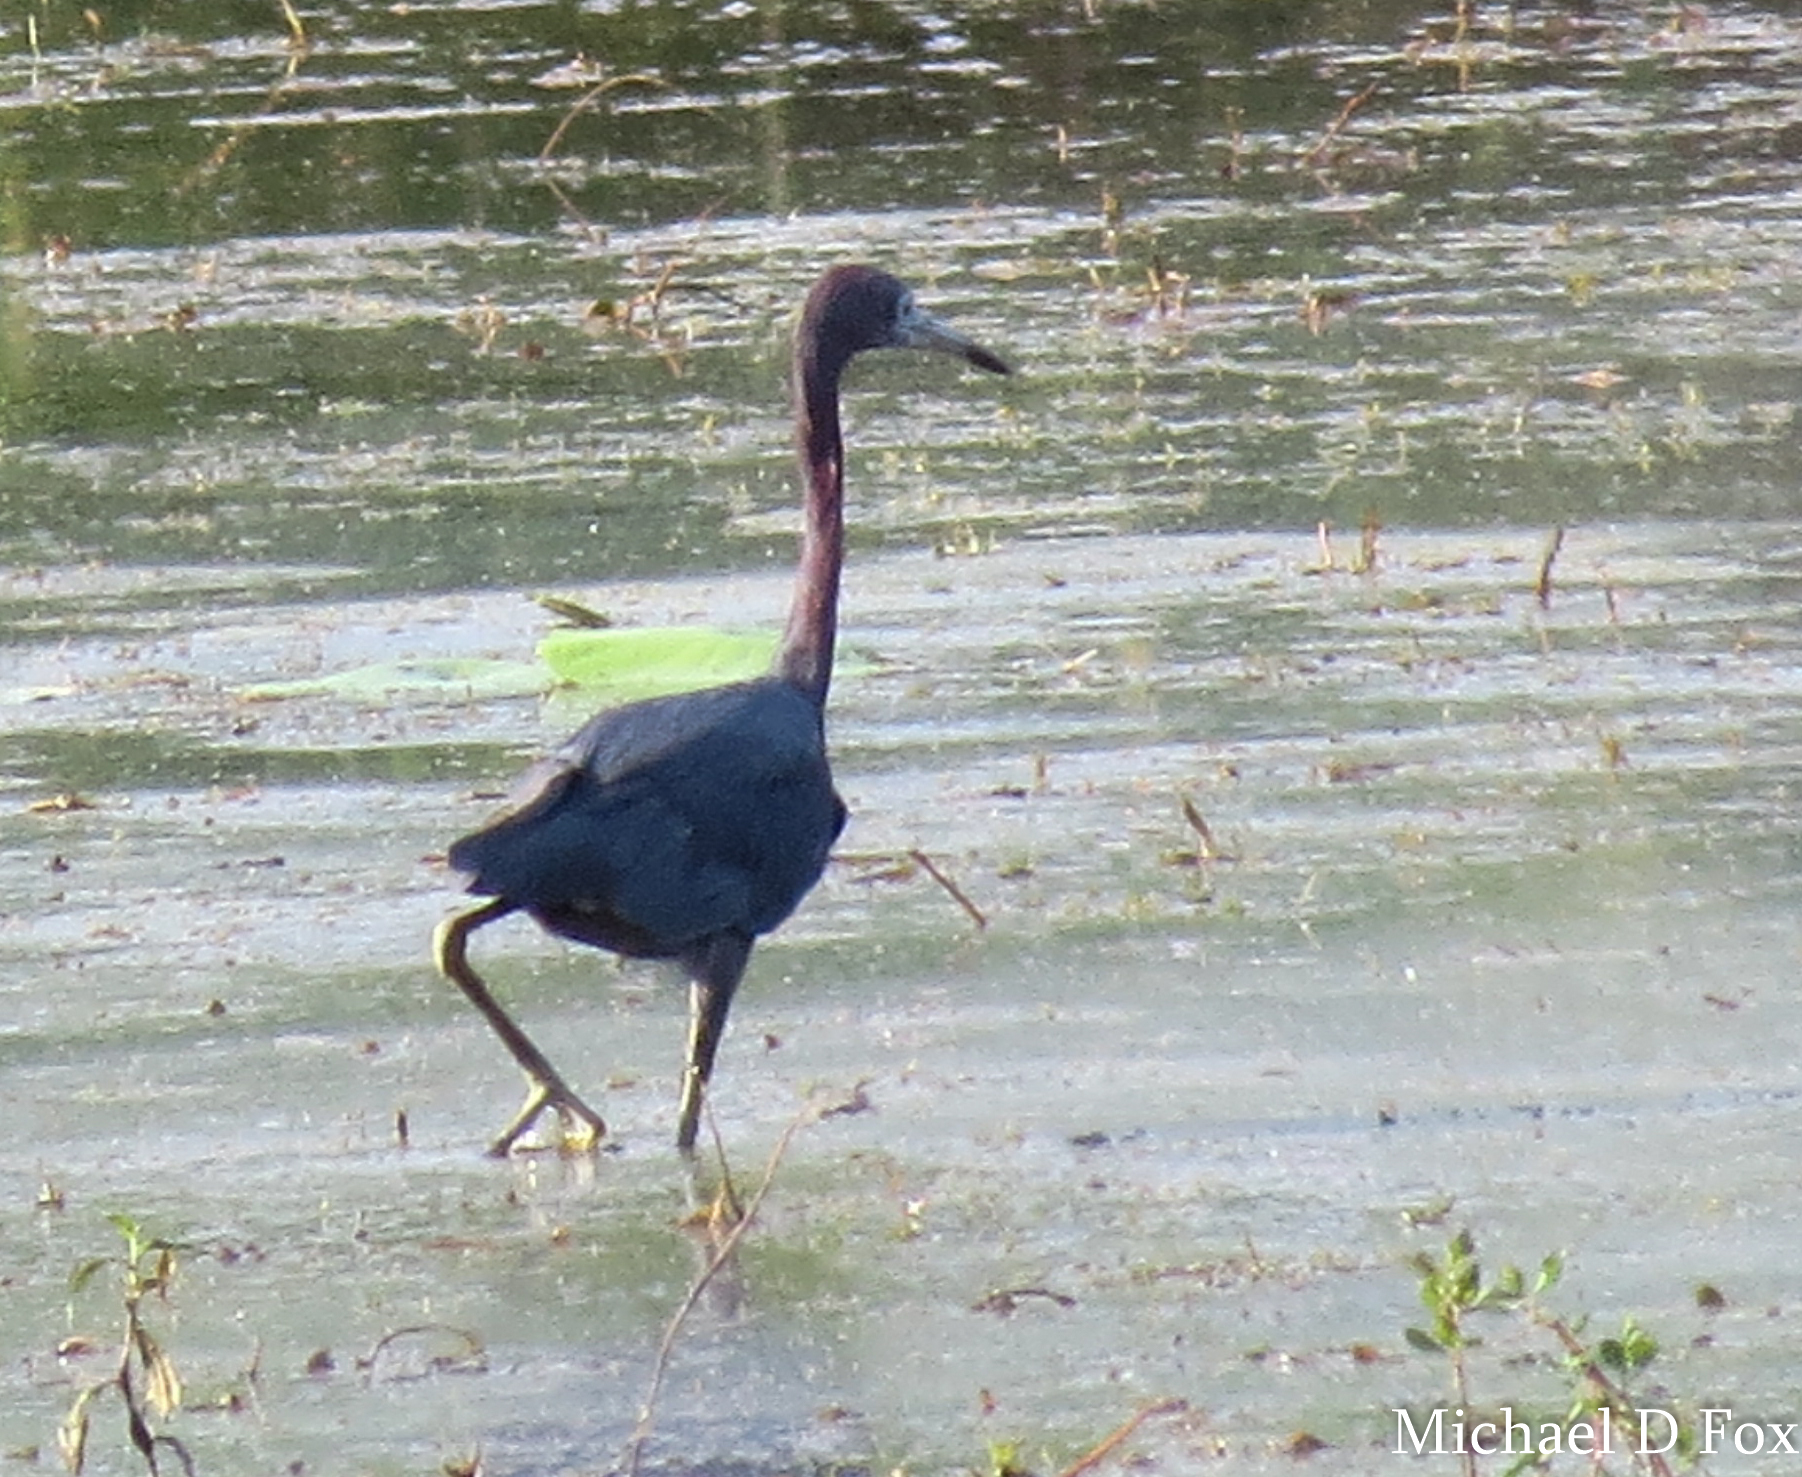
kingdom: Animalia
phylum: Chordata
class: Aves
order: Pelecaniformes
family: Ardeidae
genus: Egretta
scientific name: Egretta caerulea
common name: Little blue heron
